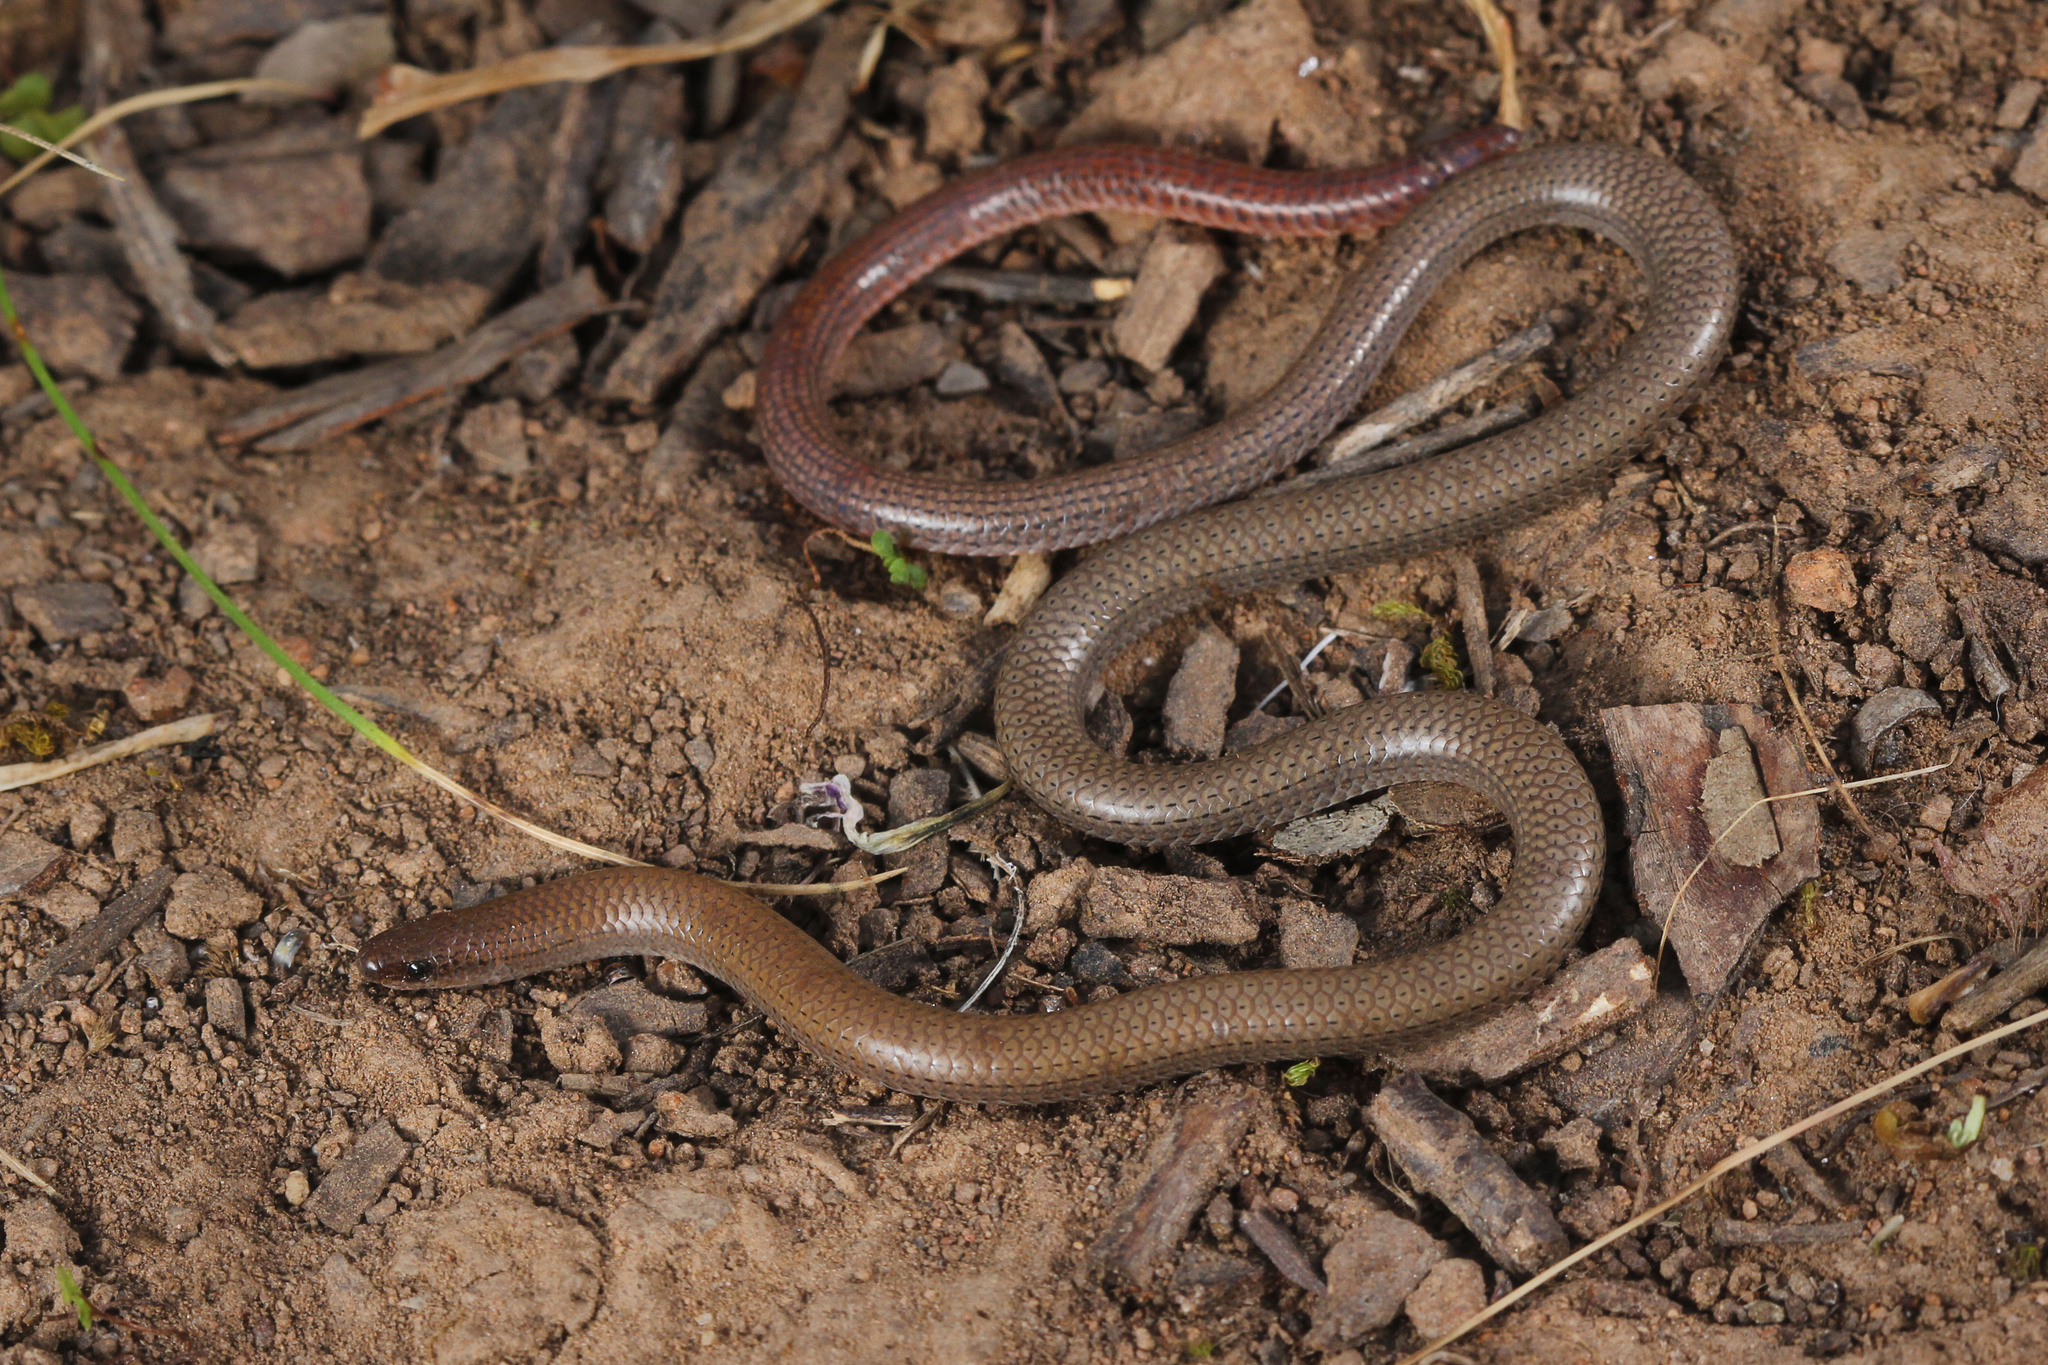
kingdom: Animalia
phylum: Chordata
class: Squamata
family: Pygopodidae
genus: Aprasia
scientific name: Aprasia pseudopulchella
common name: Flinders ranges worm-lizard
